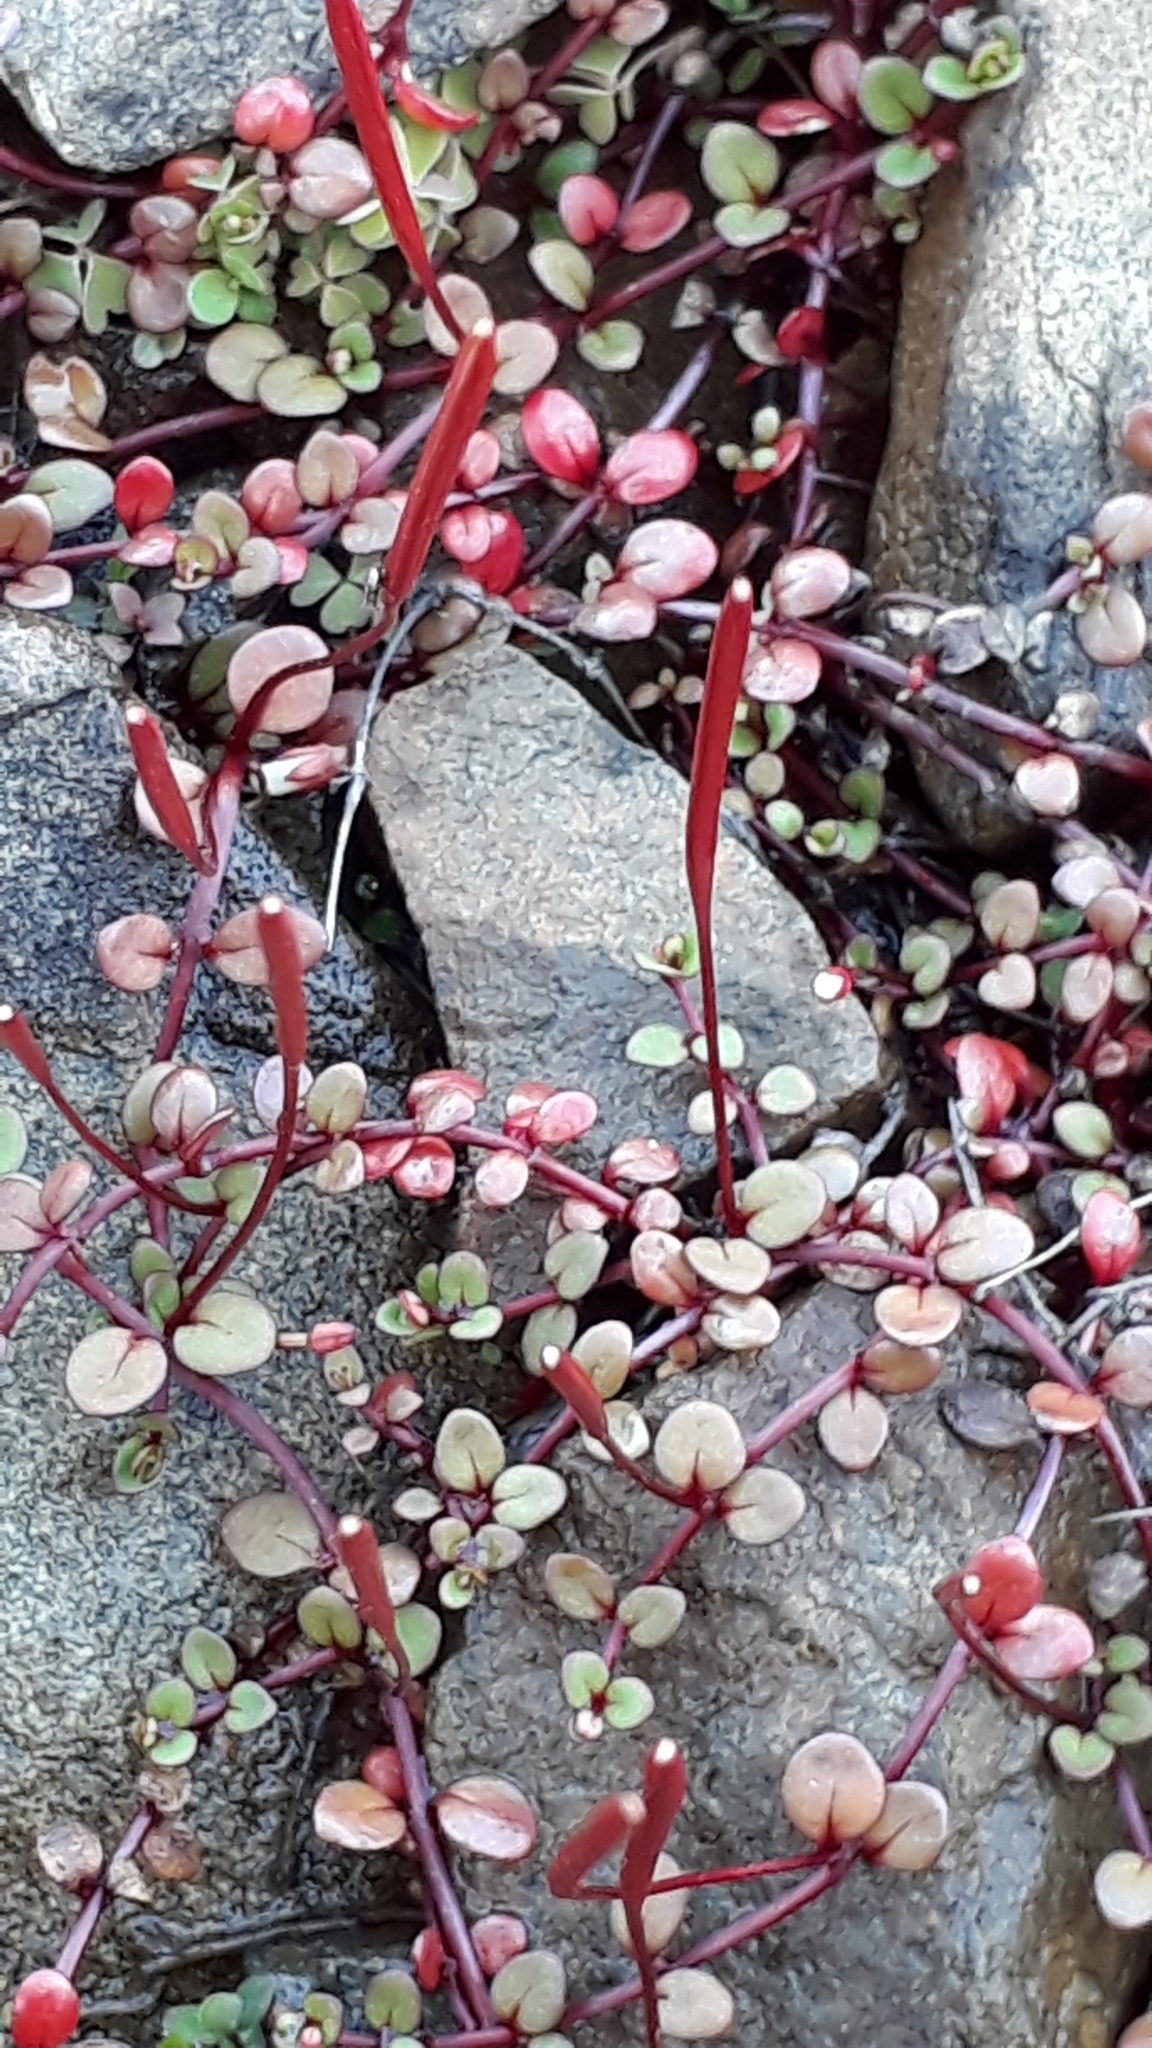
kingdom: Plantae
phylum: Tracheophyta
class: Magnoliopsida
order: Myrtales
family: Onagraceae
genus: Epilobium
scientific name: Epilobium brunnescens
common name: New zealand willowherb
